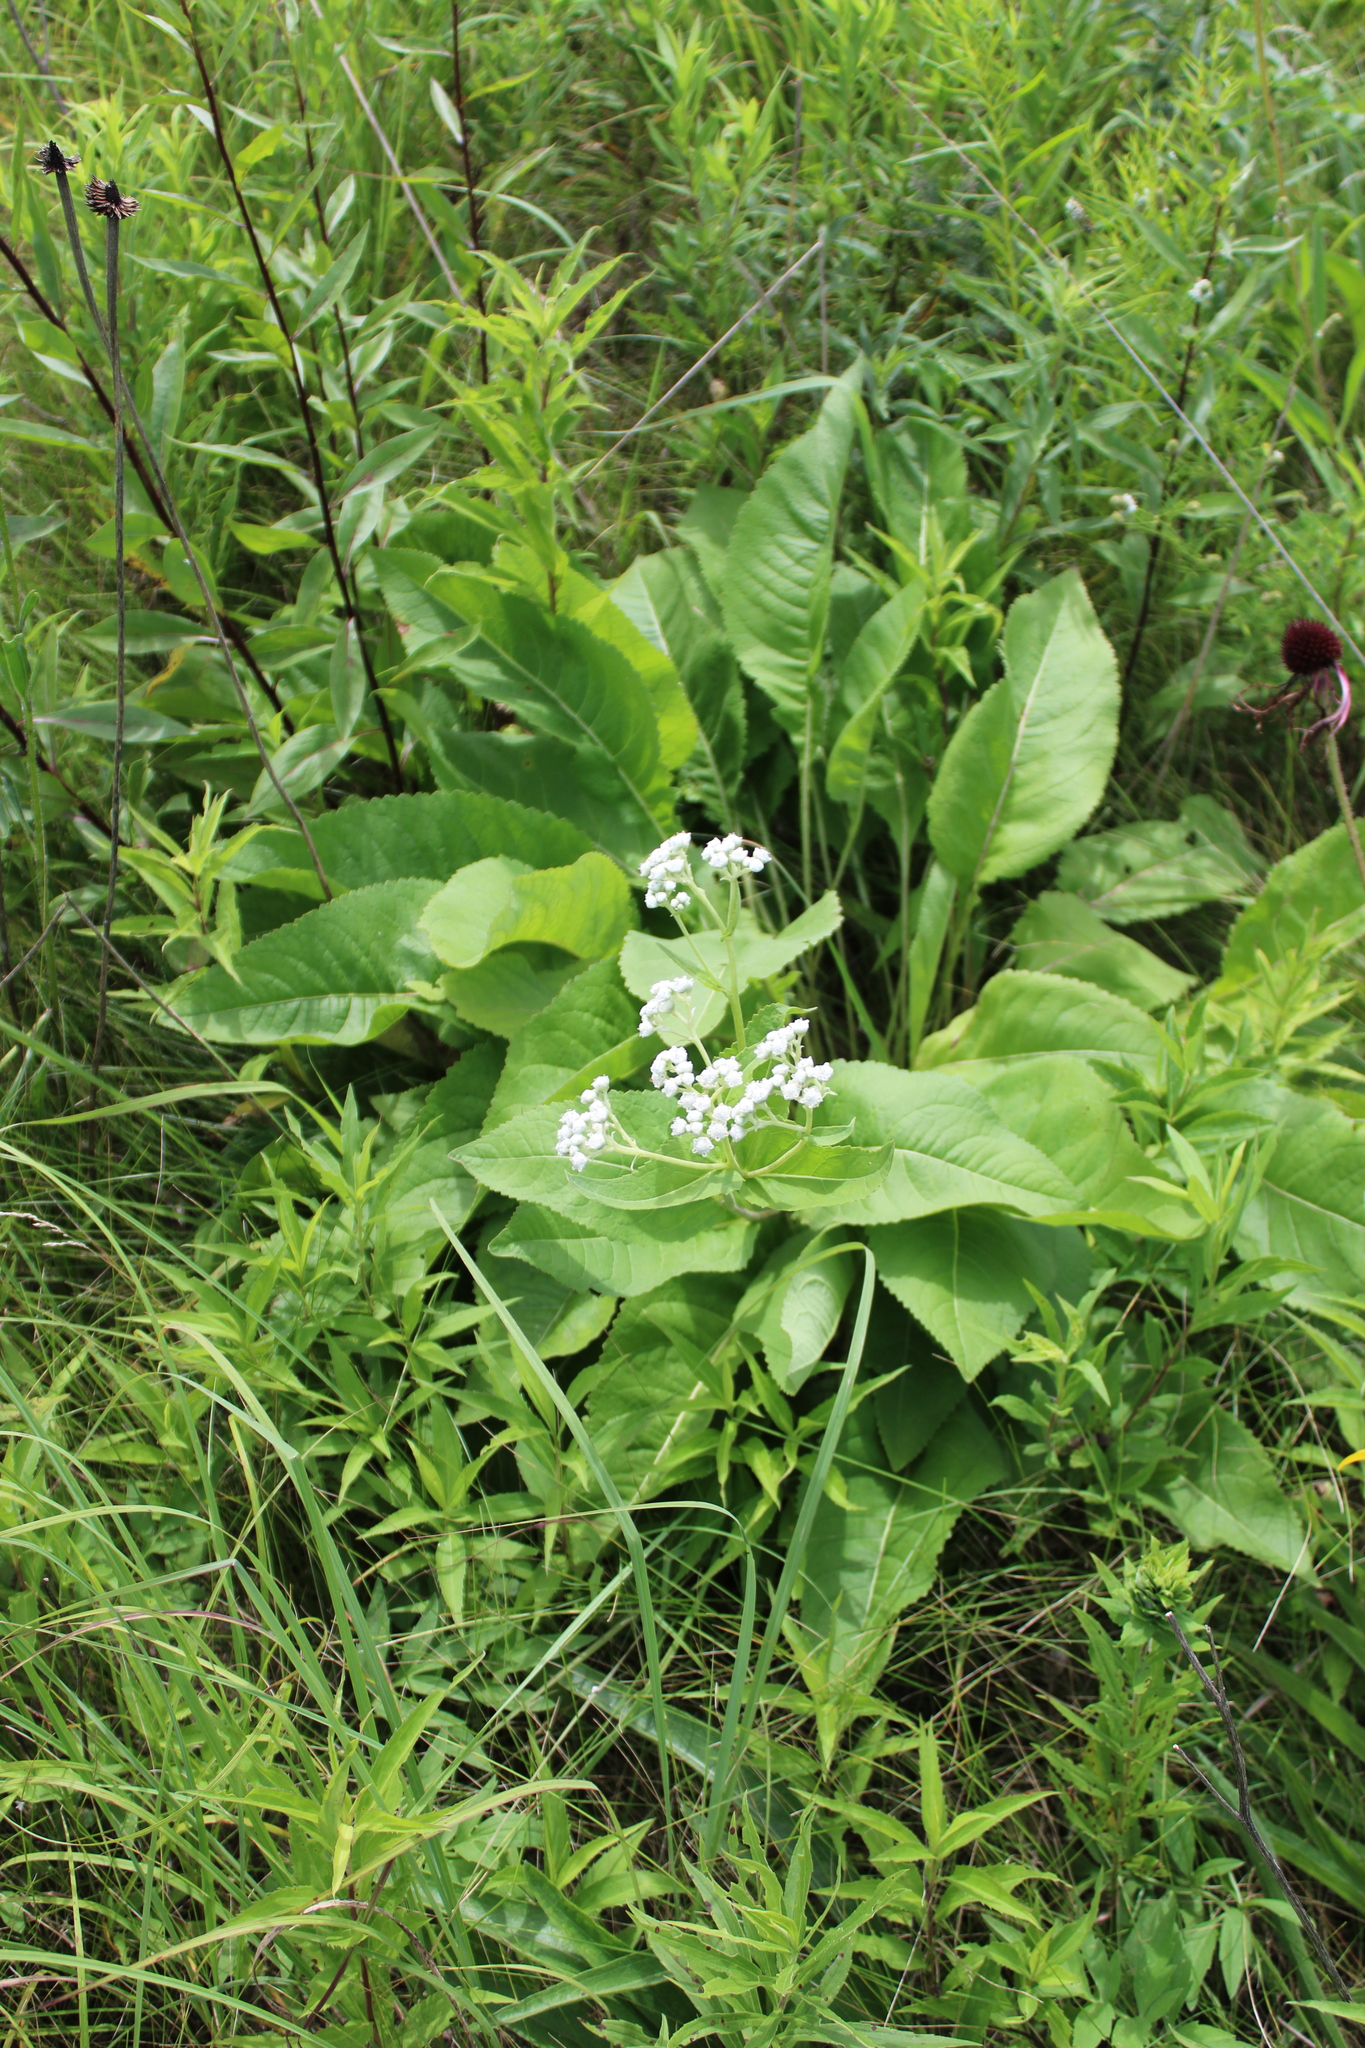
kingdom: Plantae
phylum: Tracheophyta
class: Magnoliopsida
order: Asterales
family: Asteraceae
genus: Parthenium
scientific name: Parthenium integrifolium
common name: American feverfew
